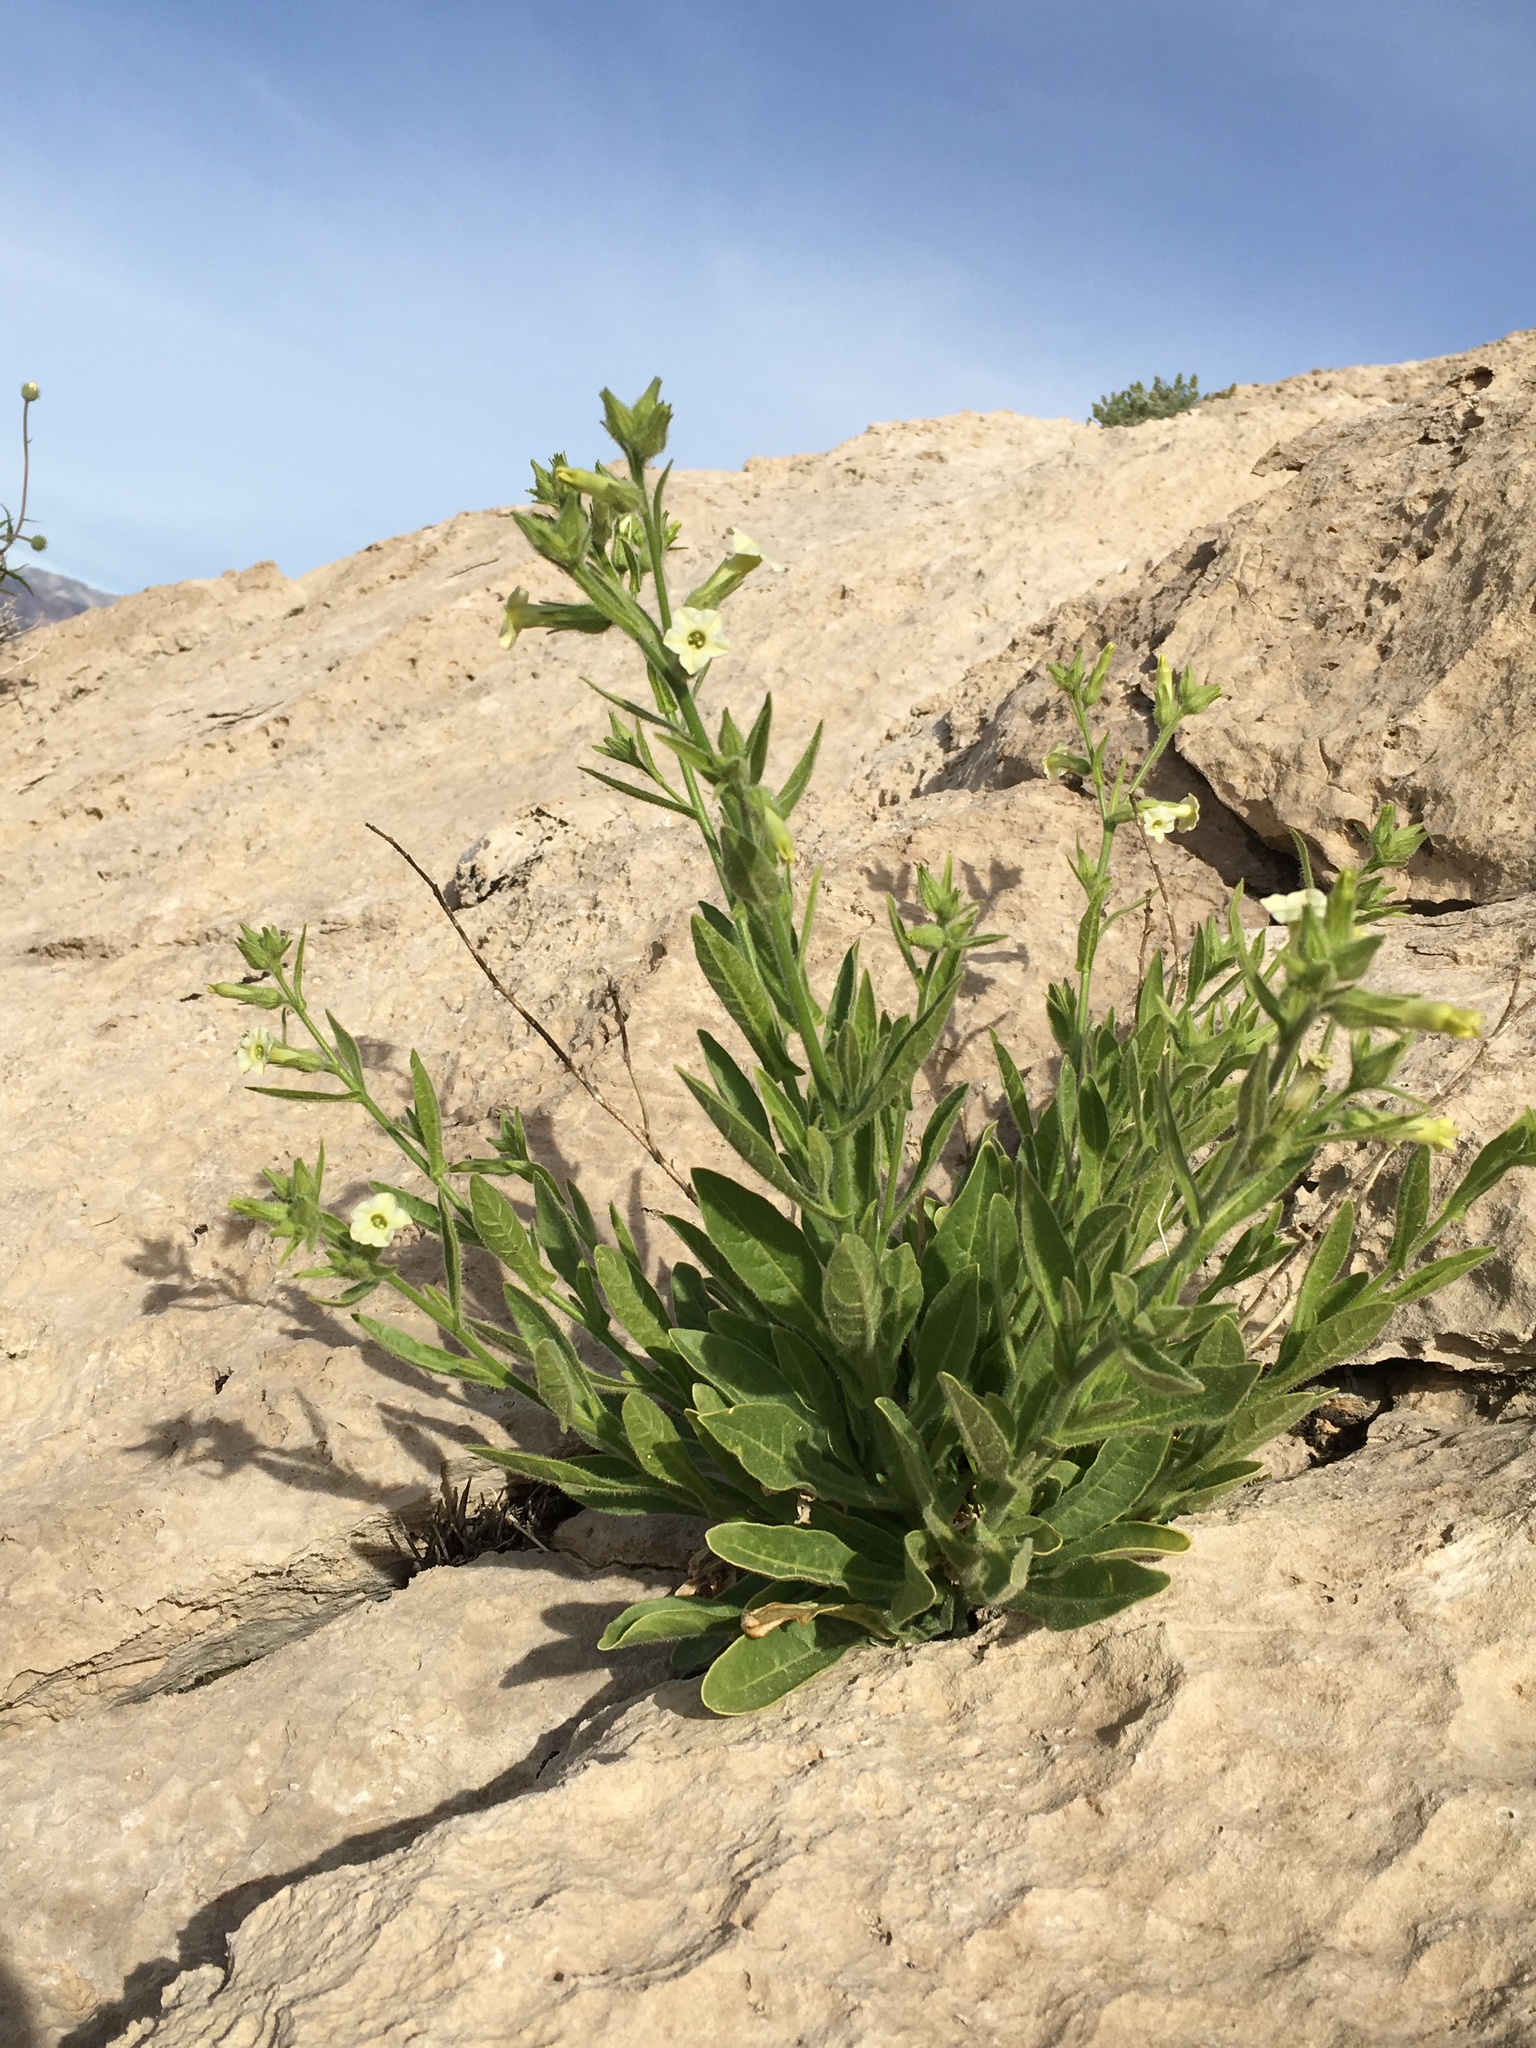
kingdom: Plantae
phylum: Tracheophyta
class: Magnoliopsida
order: Solanales
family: Solanaceae
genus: Nicotiana
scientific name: Nicotiana obtusifolia
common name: Desert tobacco
